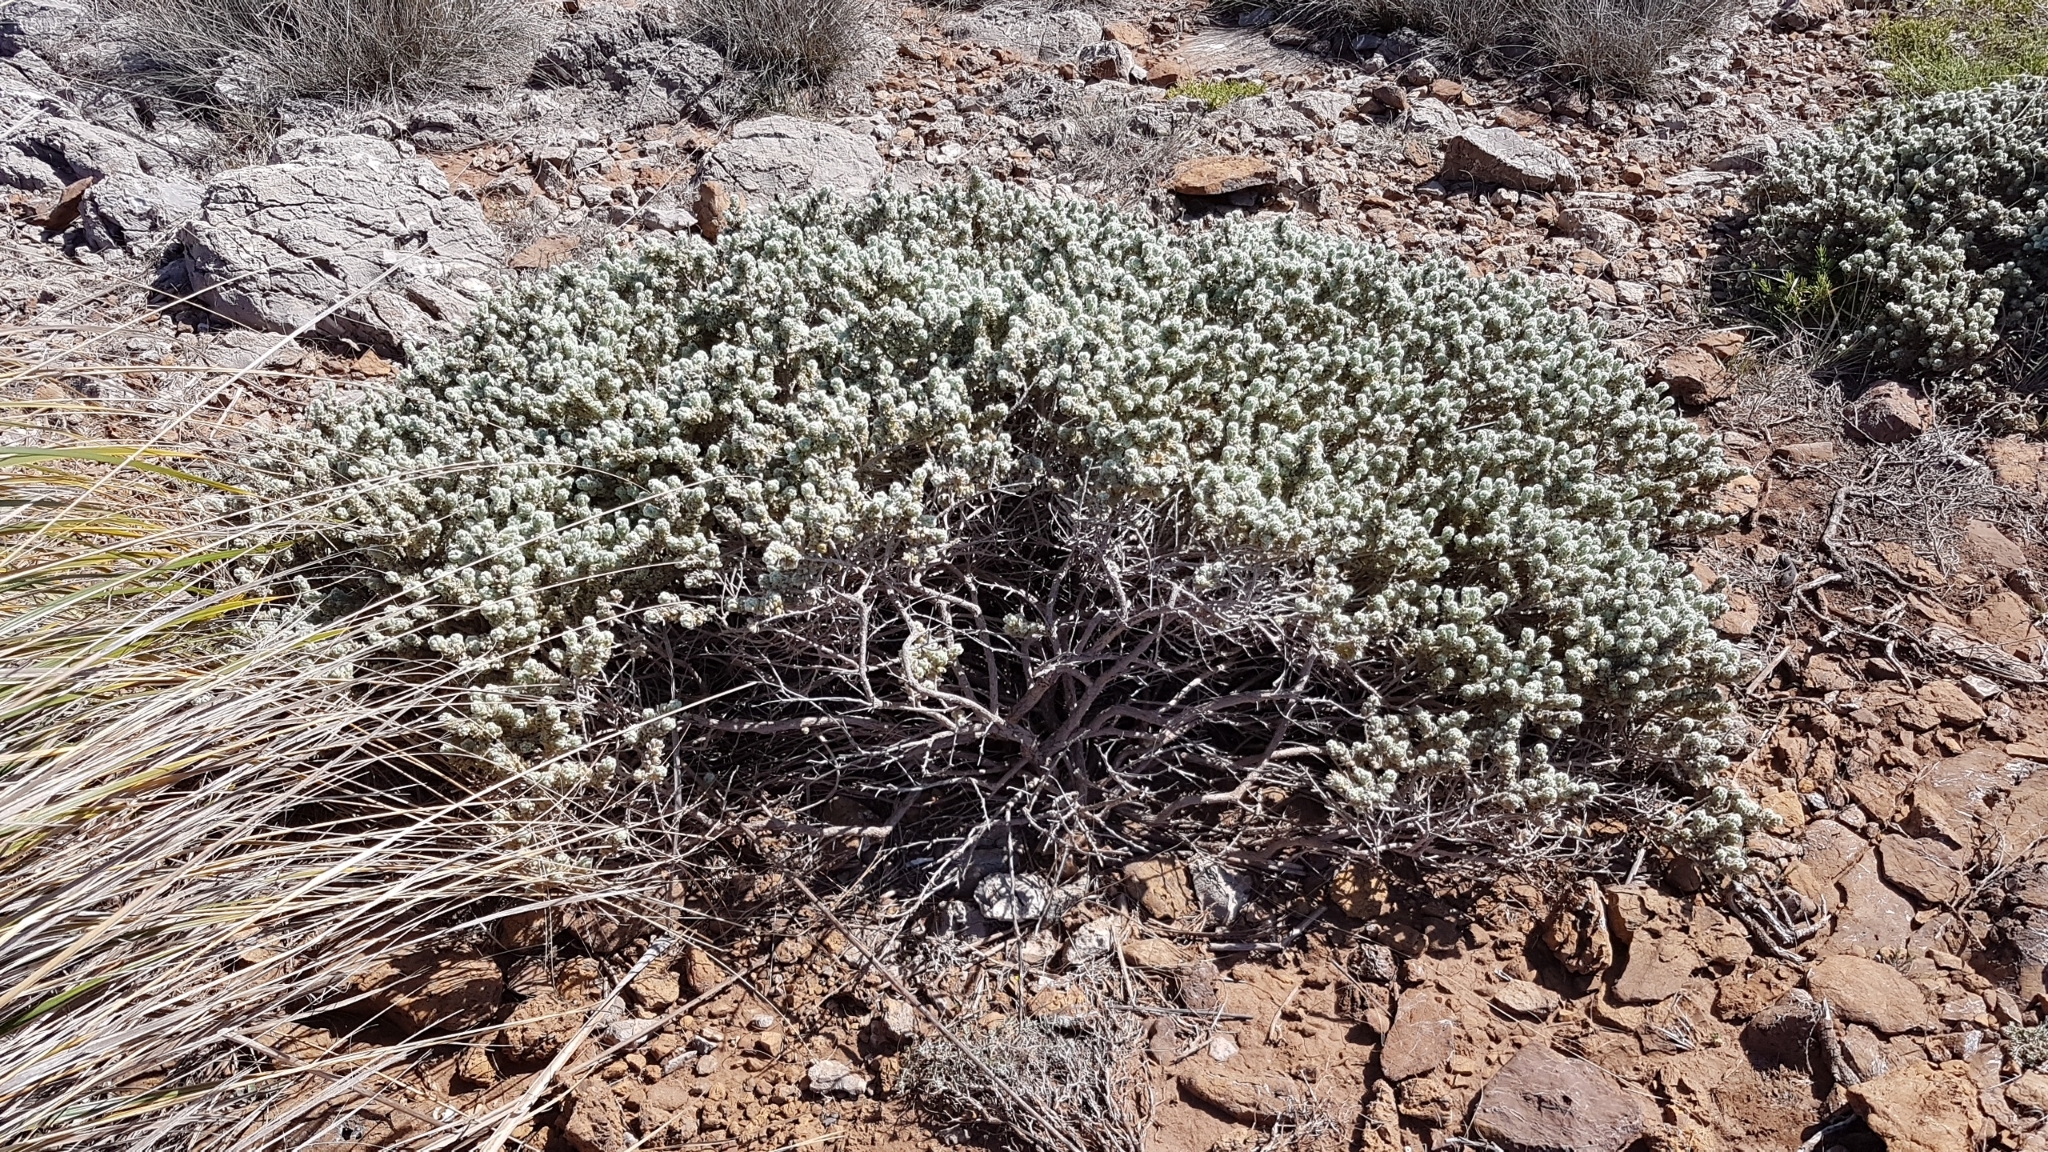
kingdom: Plantae
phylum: Tracheophyta
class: Magnoliopsida
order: Malvales
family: Thymelaeaceae
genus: Thymelaea
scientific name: Thymelaea velutina
